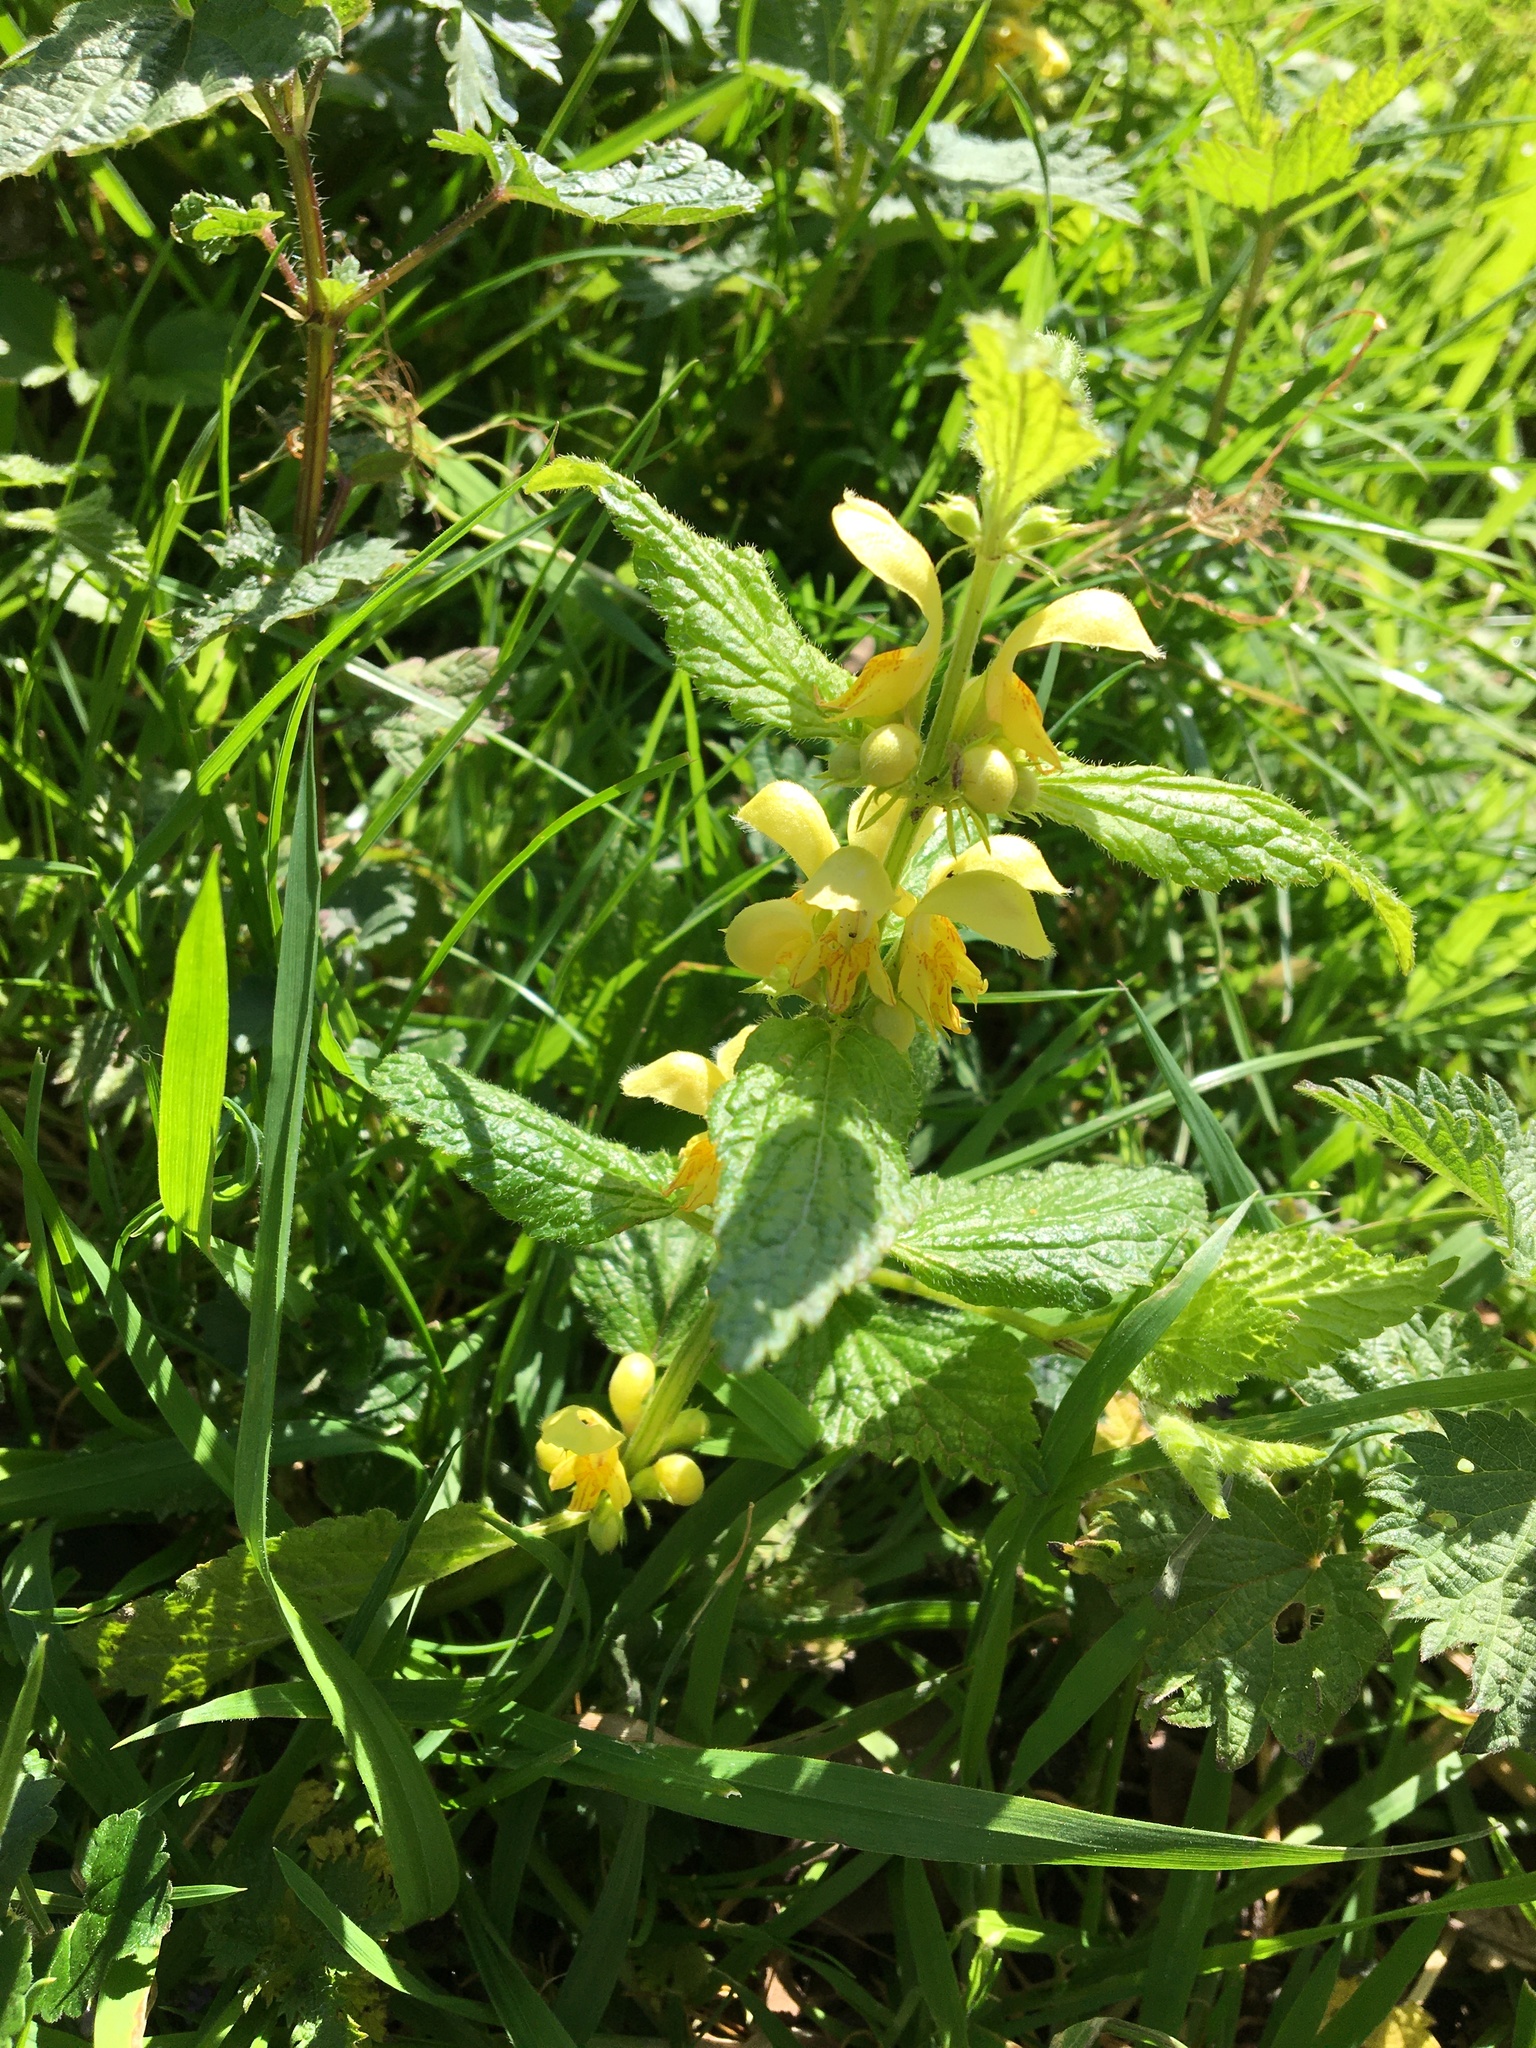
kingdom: Plantae
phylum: Tracheophyta
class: Magnoliopsida
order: Lamiales
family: Lamiaceae
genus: Lamium
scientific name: Lamium galeobdolon
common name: Yellow archangel
